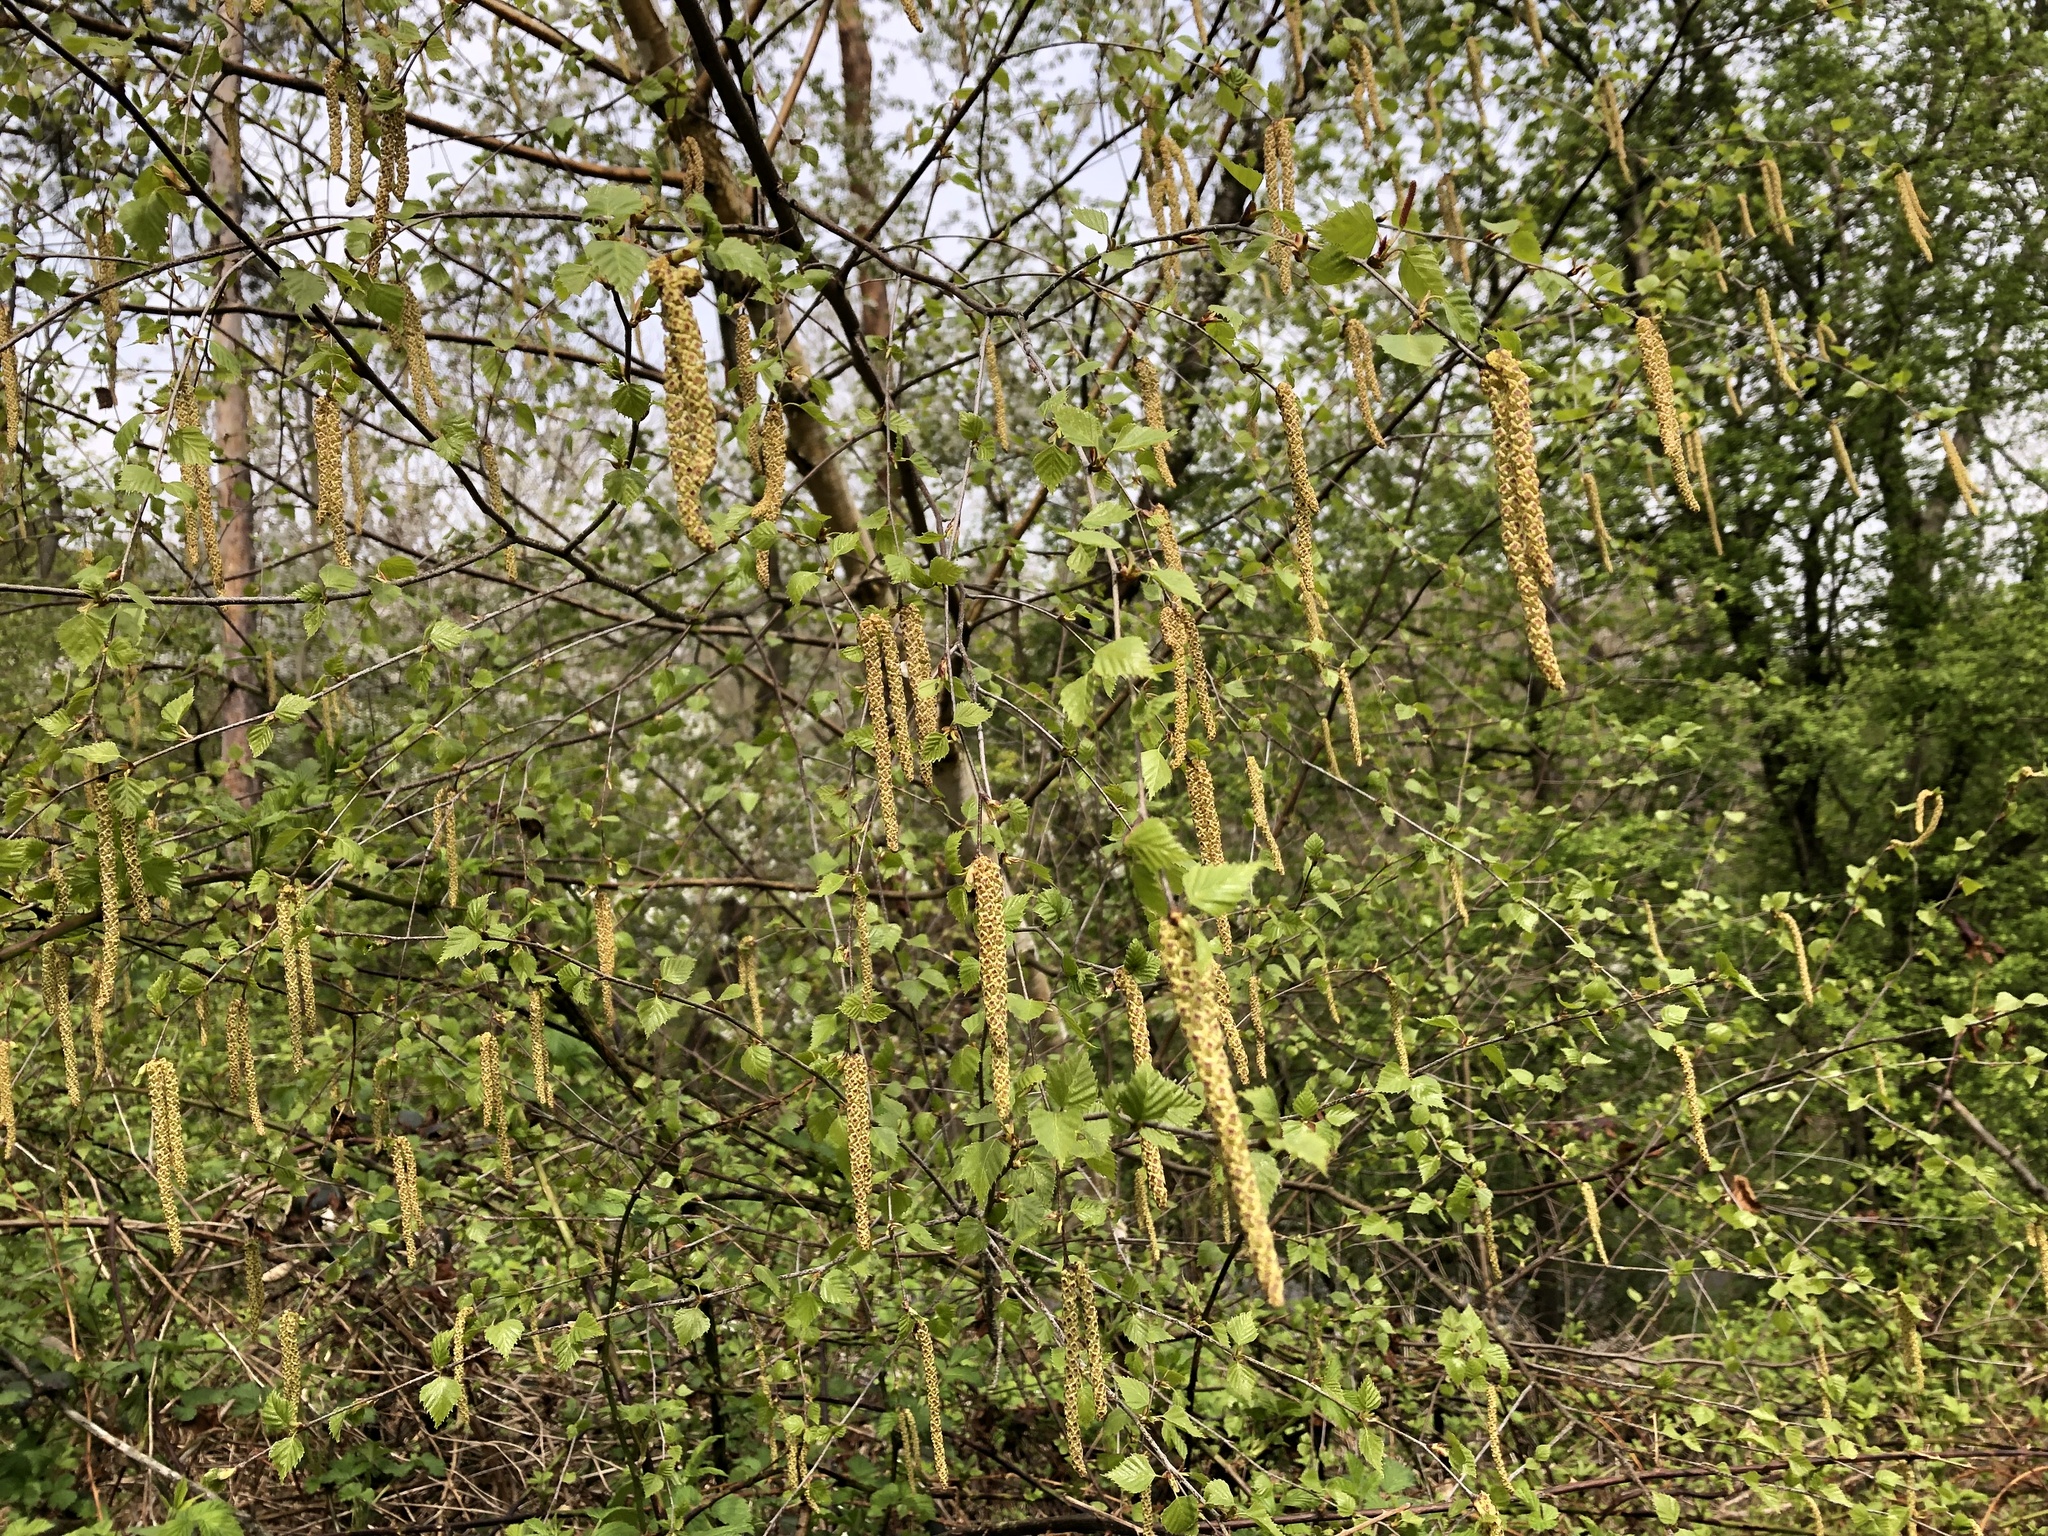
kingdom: Plantae
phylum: Tracheophyta
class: Magnoliopsida
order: Fagales
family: Betulaceae
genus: Betula
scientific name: Betula pendula
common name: Silver birch
